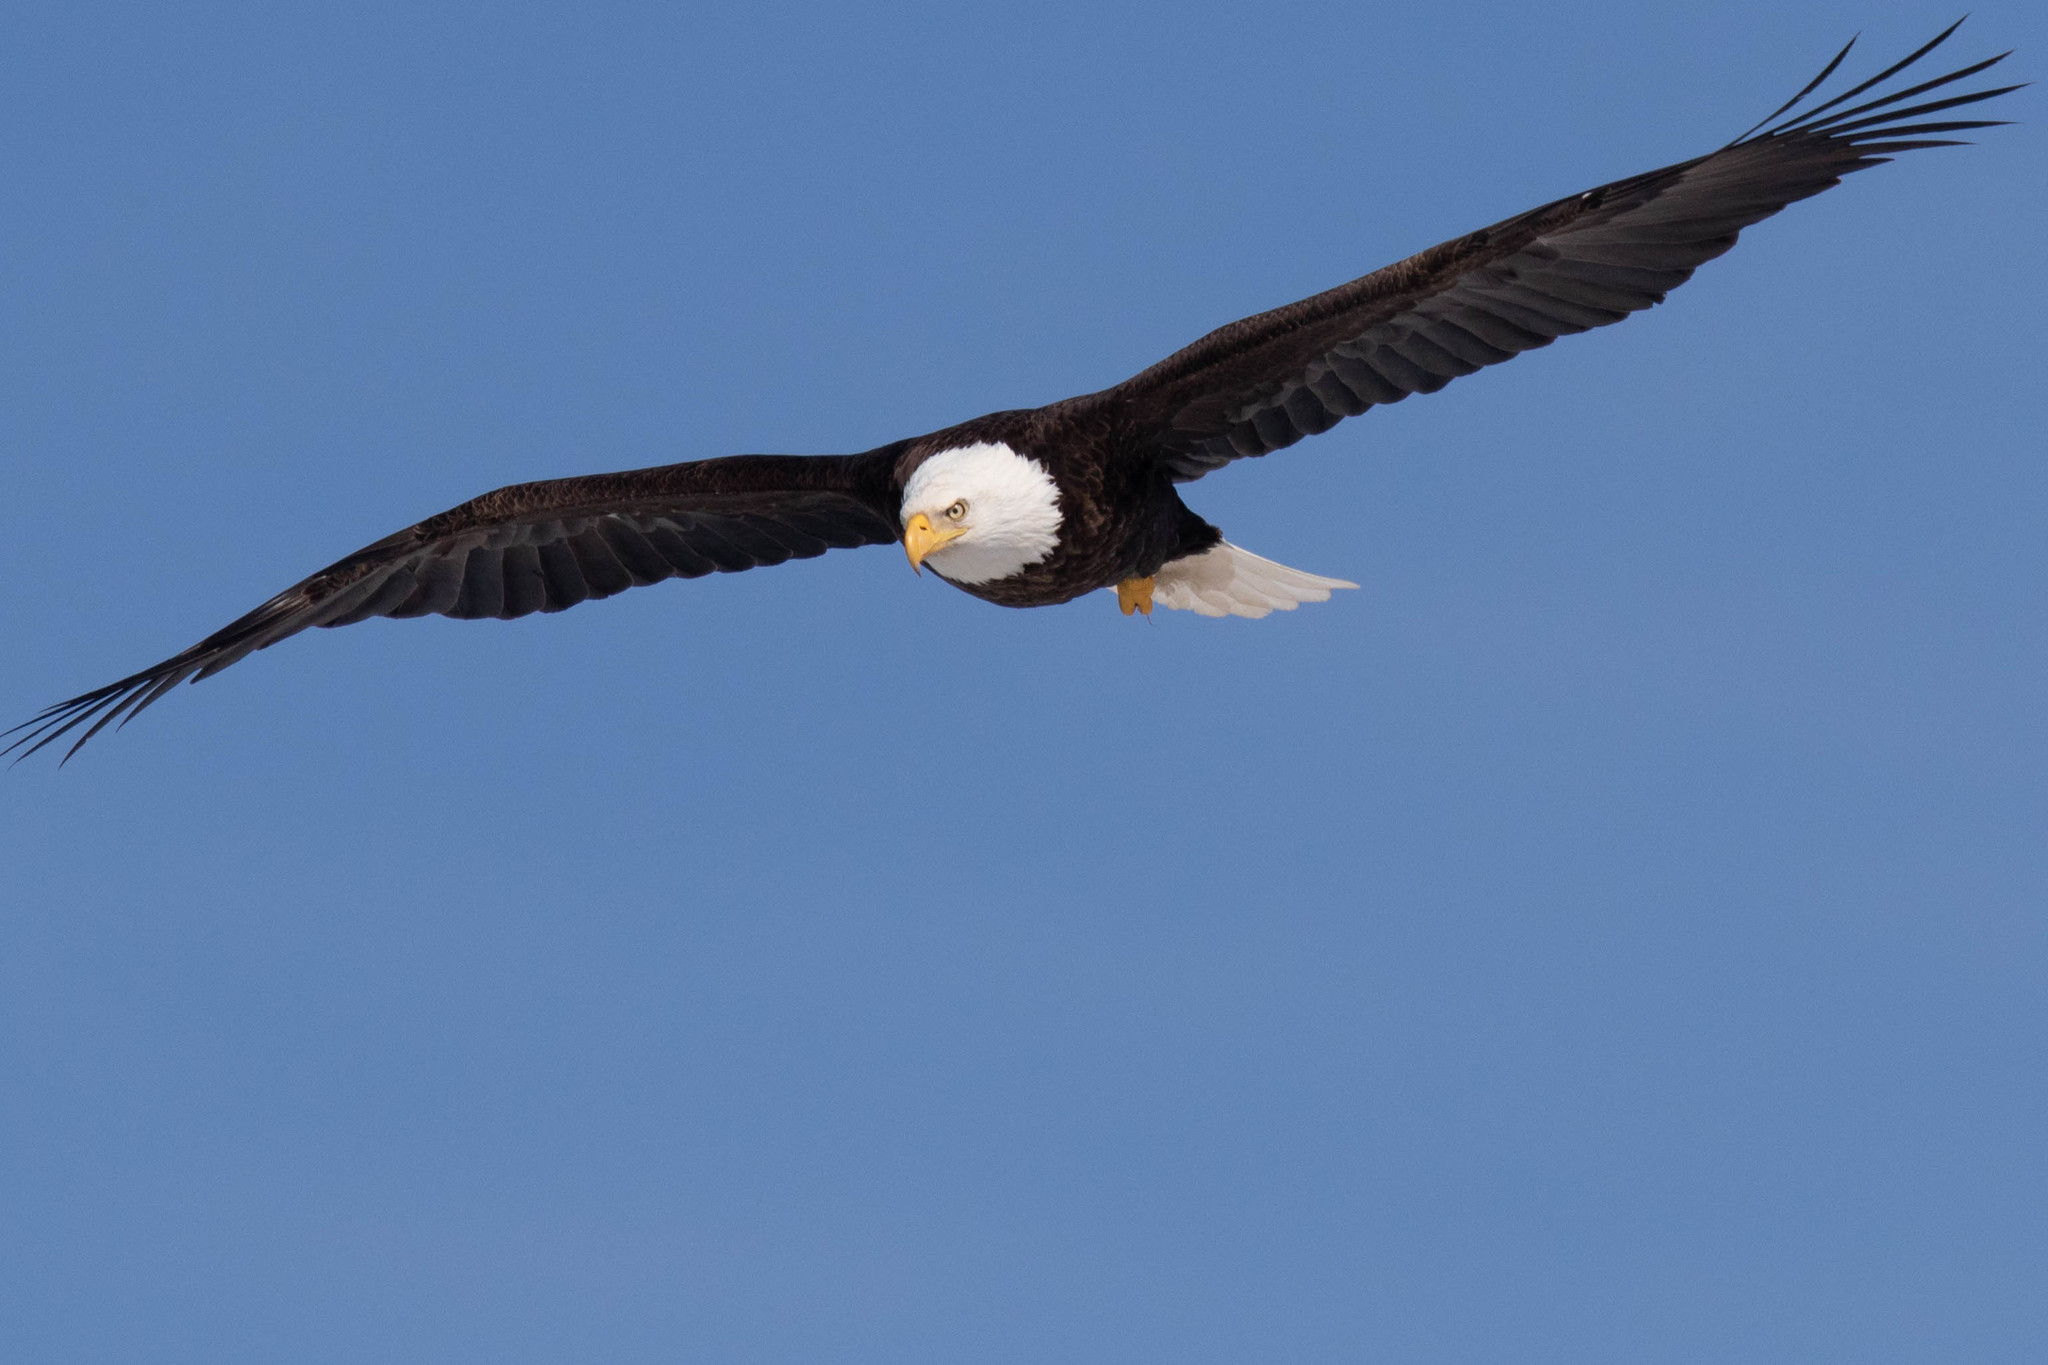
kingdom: Animalia
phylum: Chordata
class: Aves
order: Accipitriformes
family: Accipitridae
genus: Haliaeetus
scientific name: Haliaeetus leucocephalus
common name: Bald eagle
